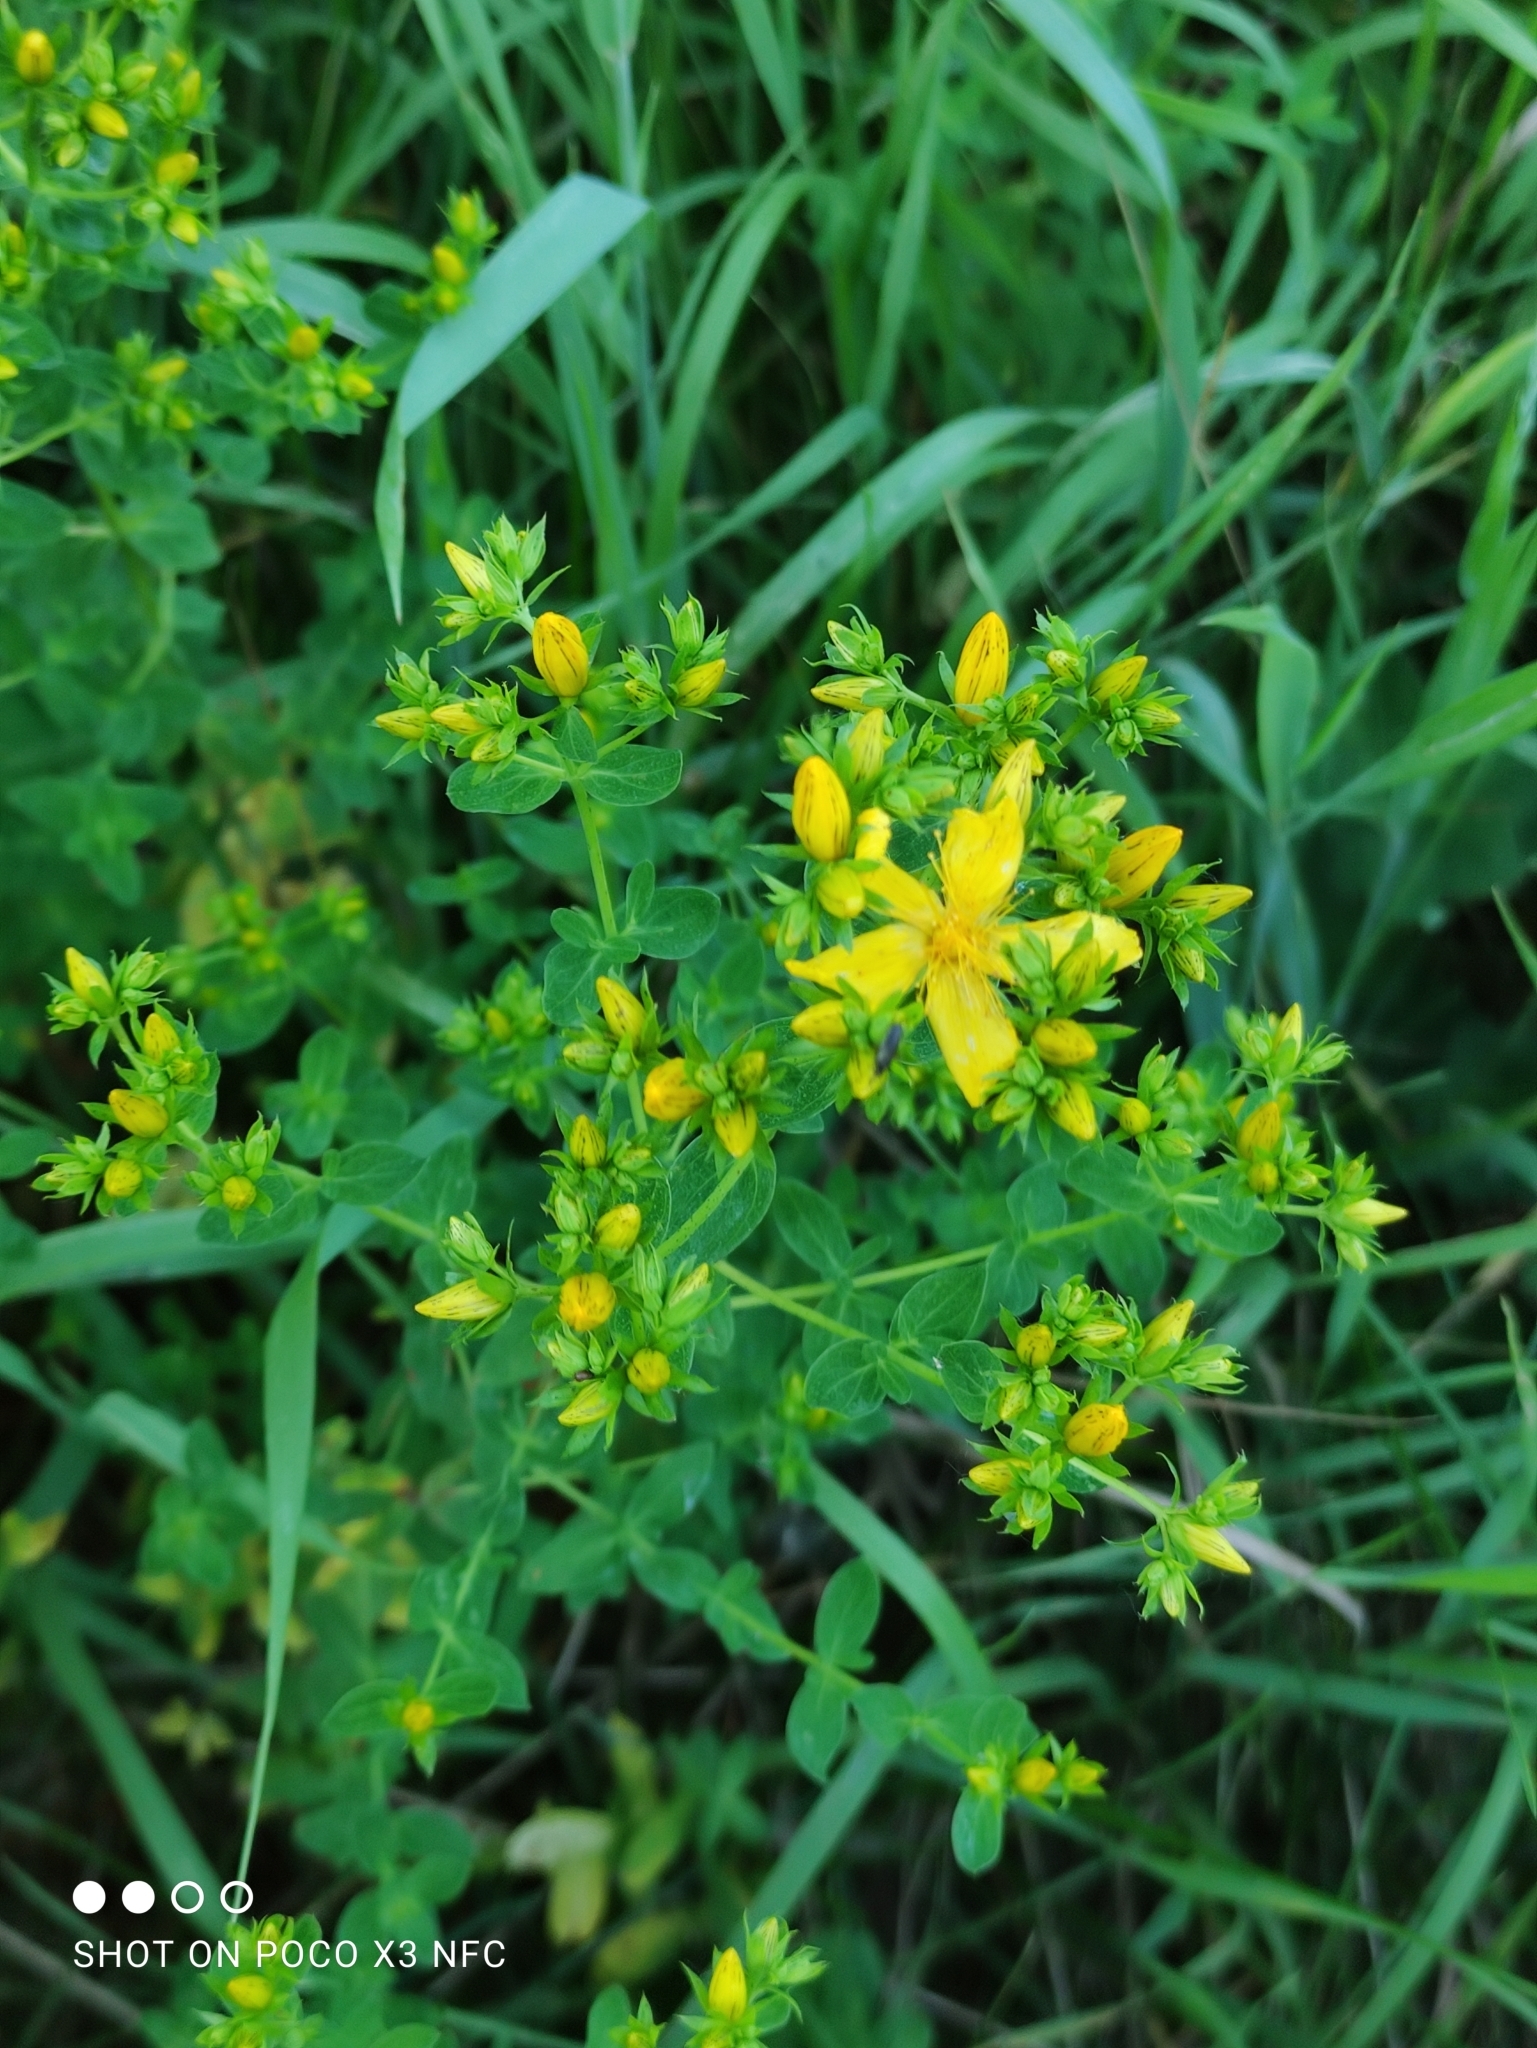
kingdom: Plantae
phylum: Tracheophyta
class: Magnoliopsida
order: Malpighiales
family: Hypericaceae
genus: Hypericum
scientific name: Hypericum perforatum
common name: Common st. johnswort
